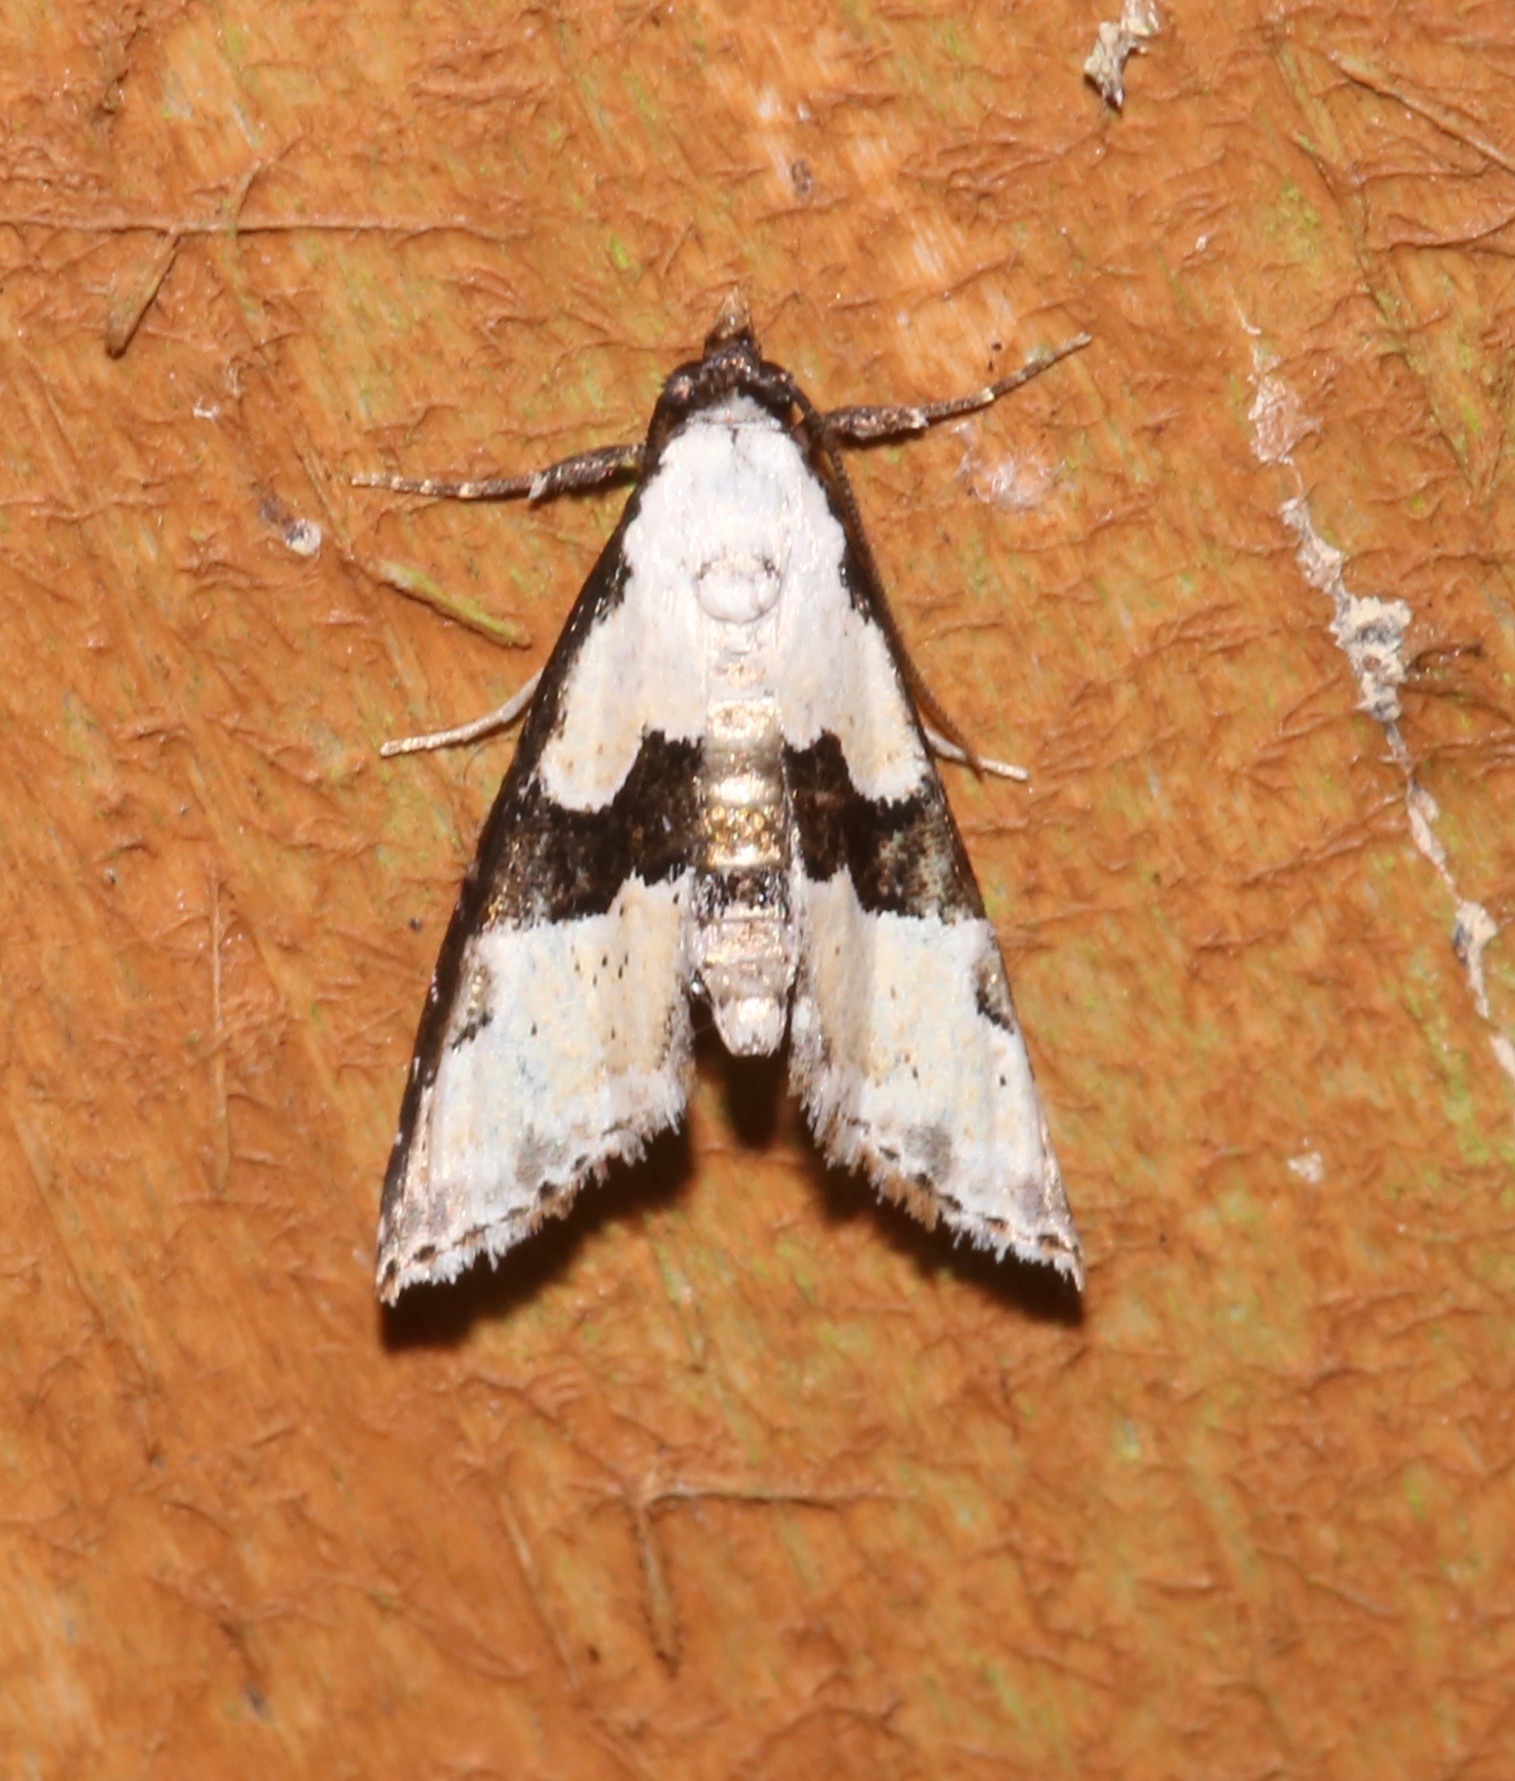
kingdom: Animalia
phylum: Arthropoda
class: Insecta
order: Lepidoptera
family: Noctuidae
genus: Nigetia
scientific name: Nigetia formosalis
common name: Thin-winged owlet
